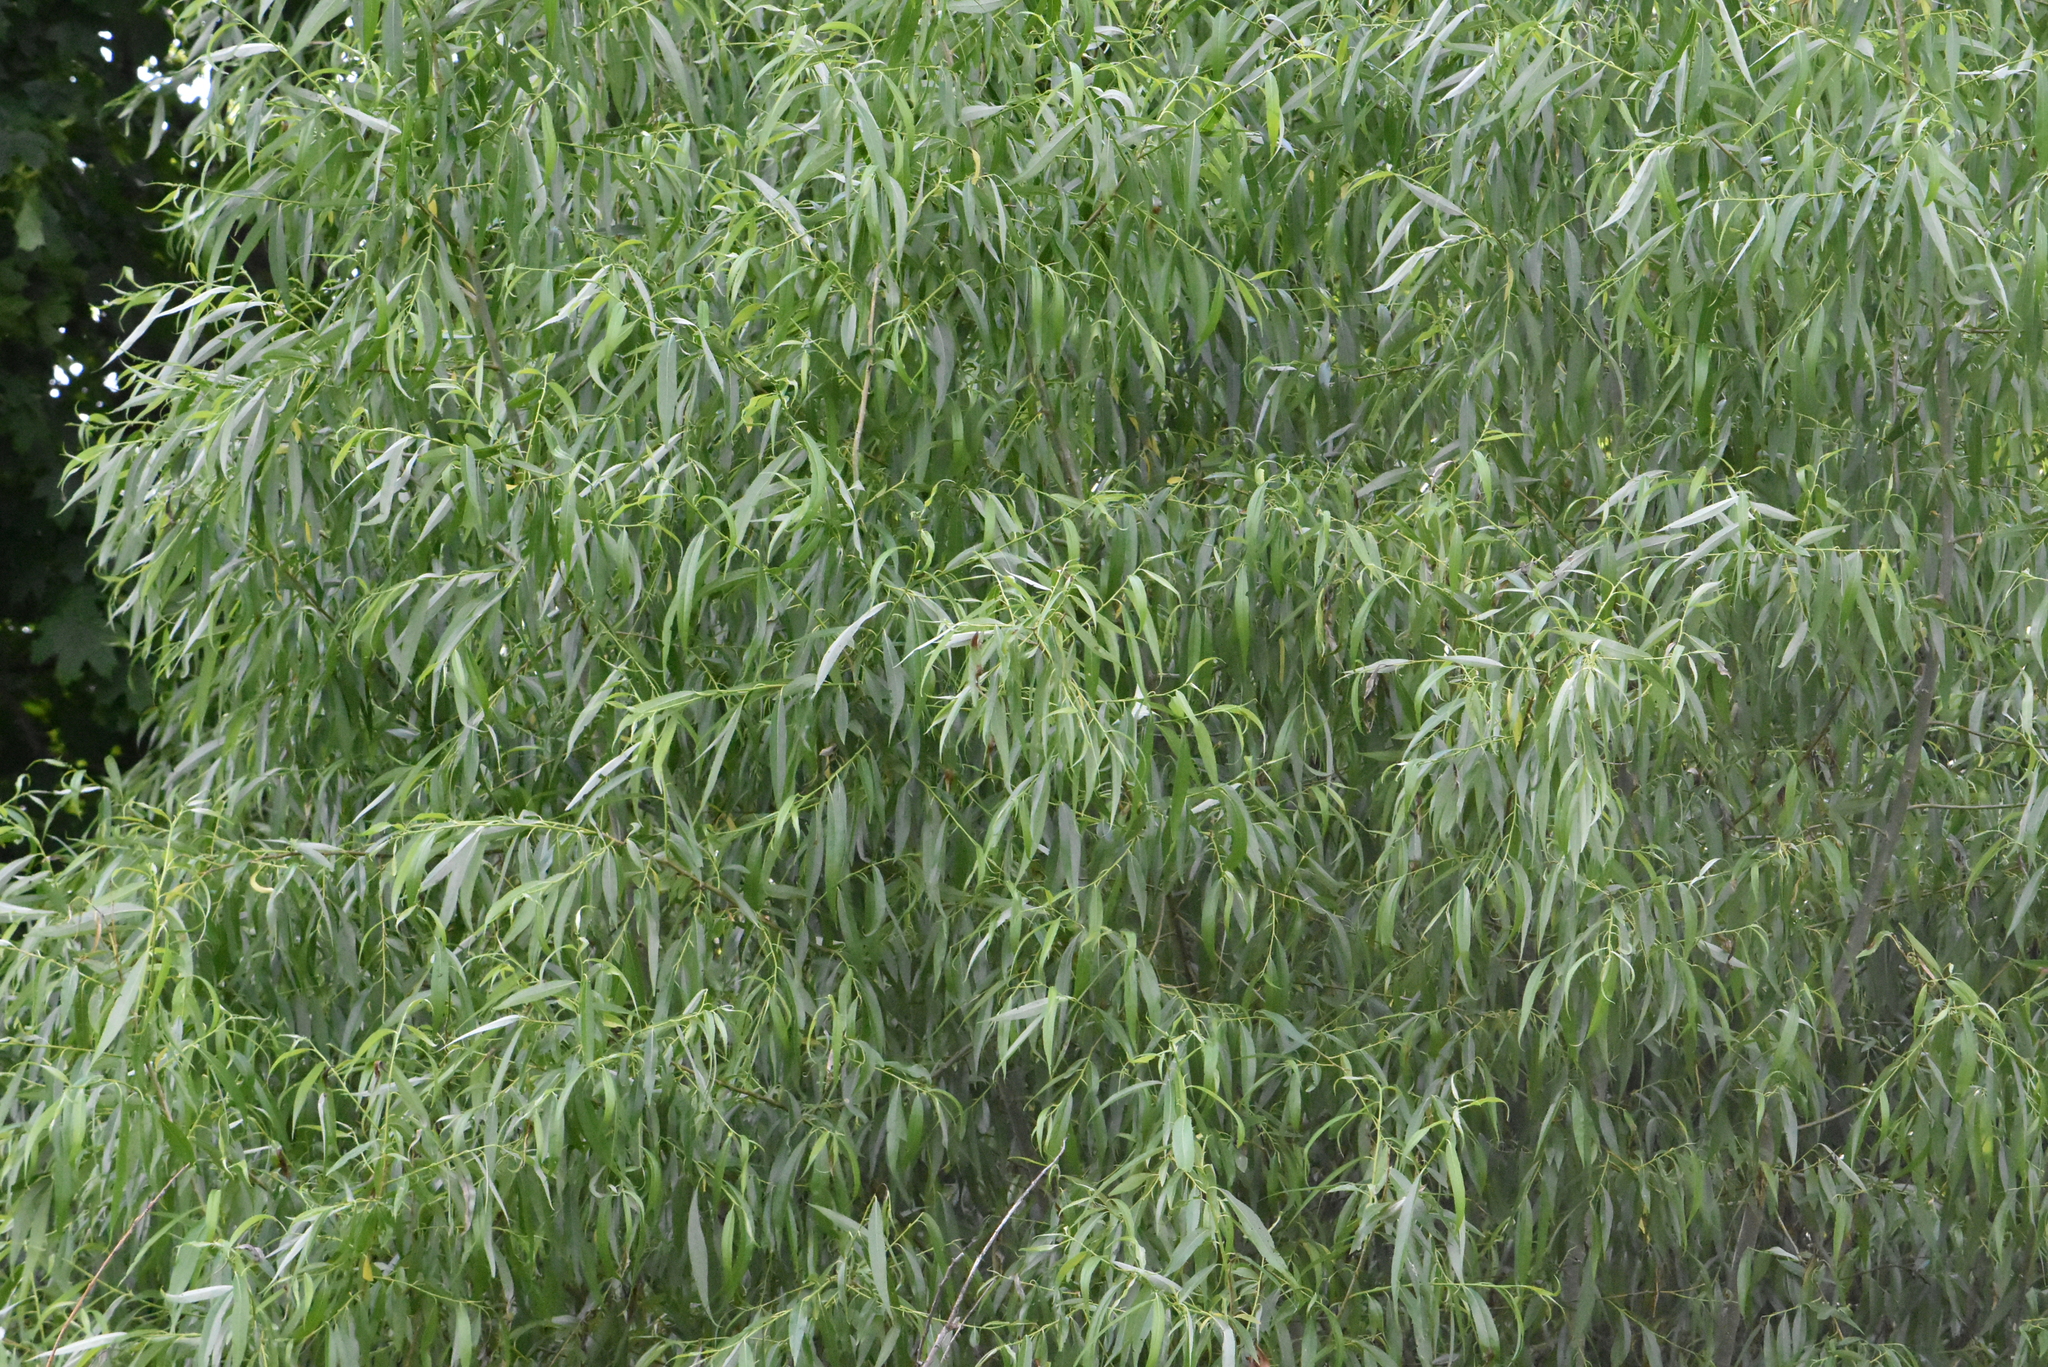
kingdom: Plantae
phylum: Tracheophyta
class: Magnoliopsida
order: Malpighiales
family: Salicaceae
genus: Salix
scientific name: Salix alba
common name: White willow
